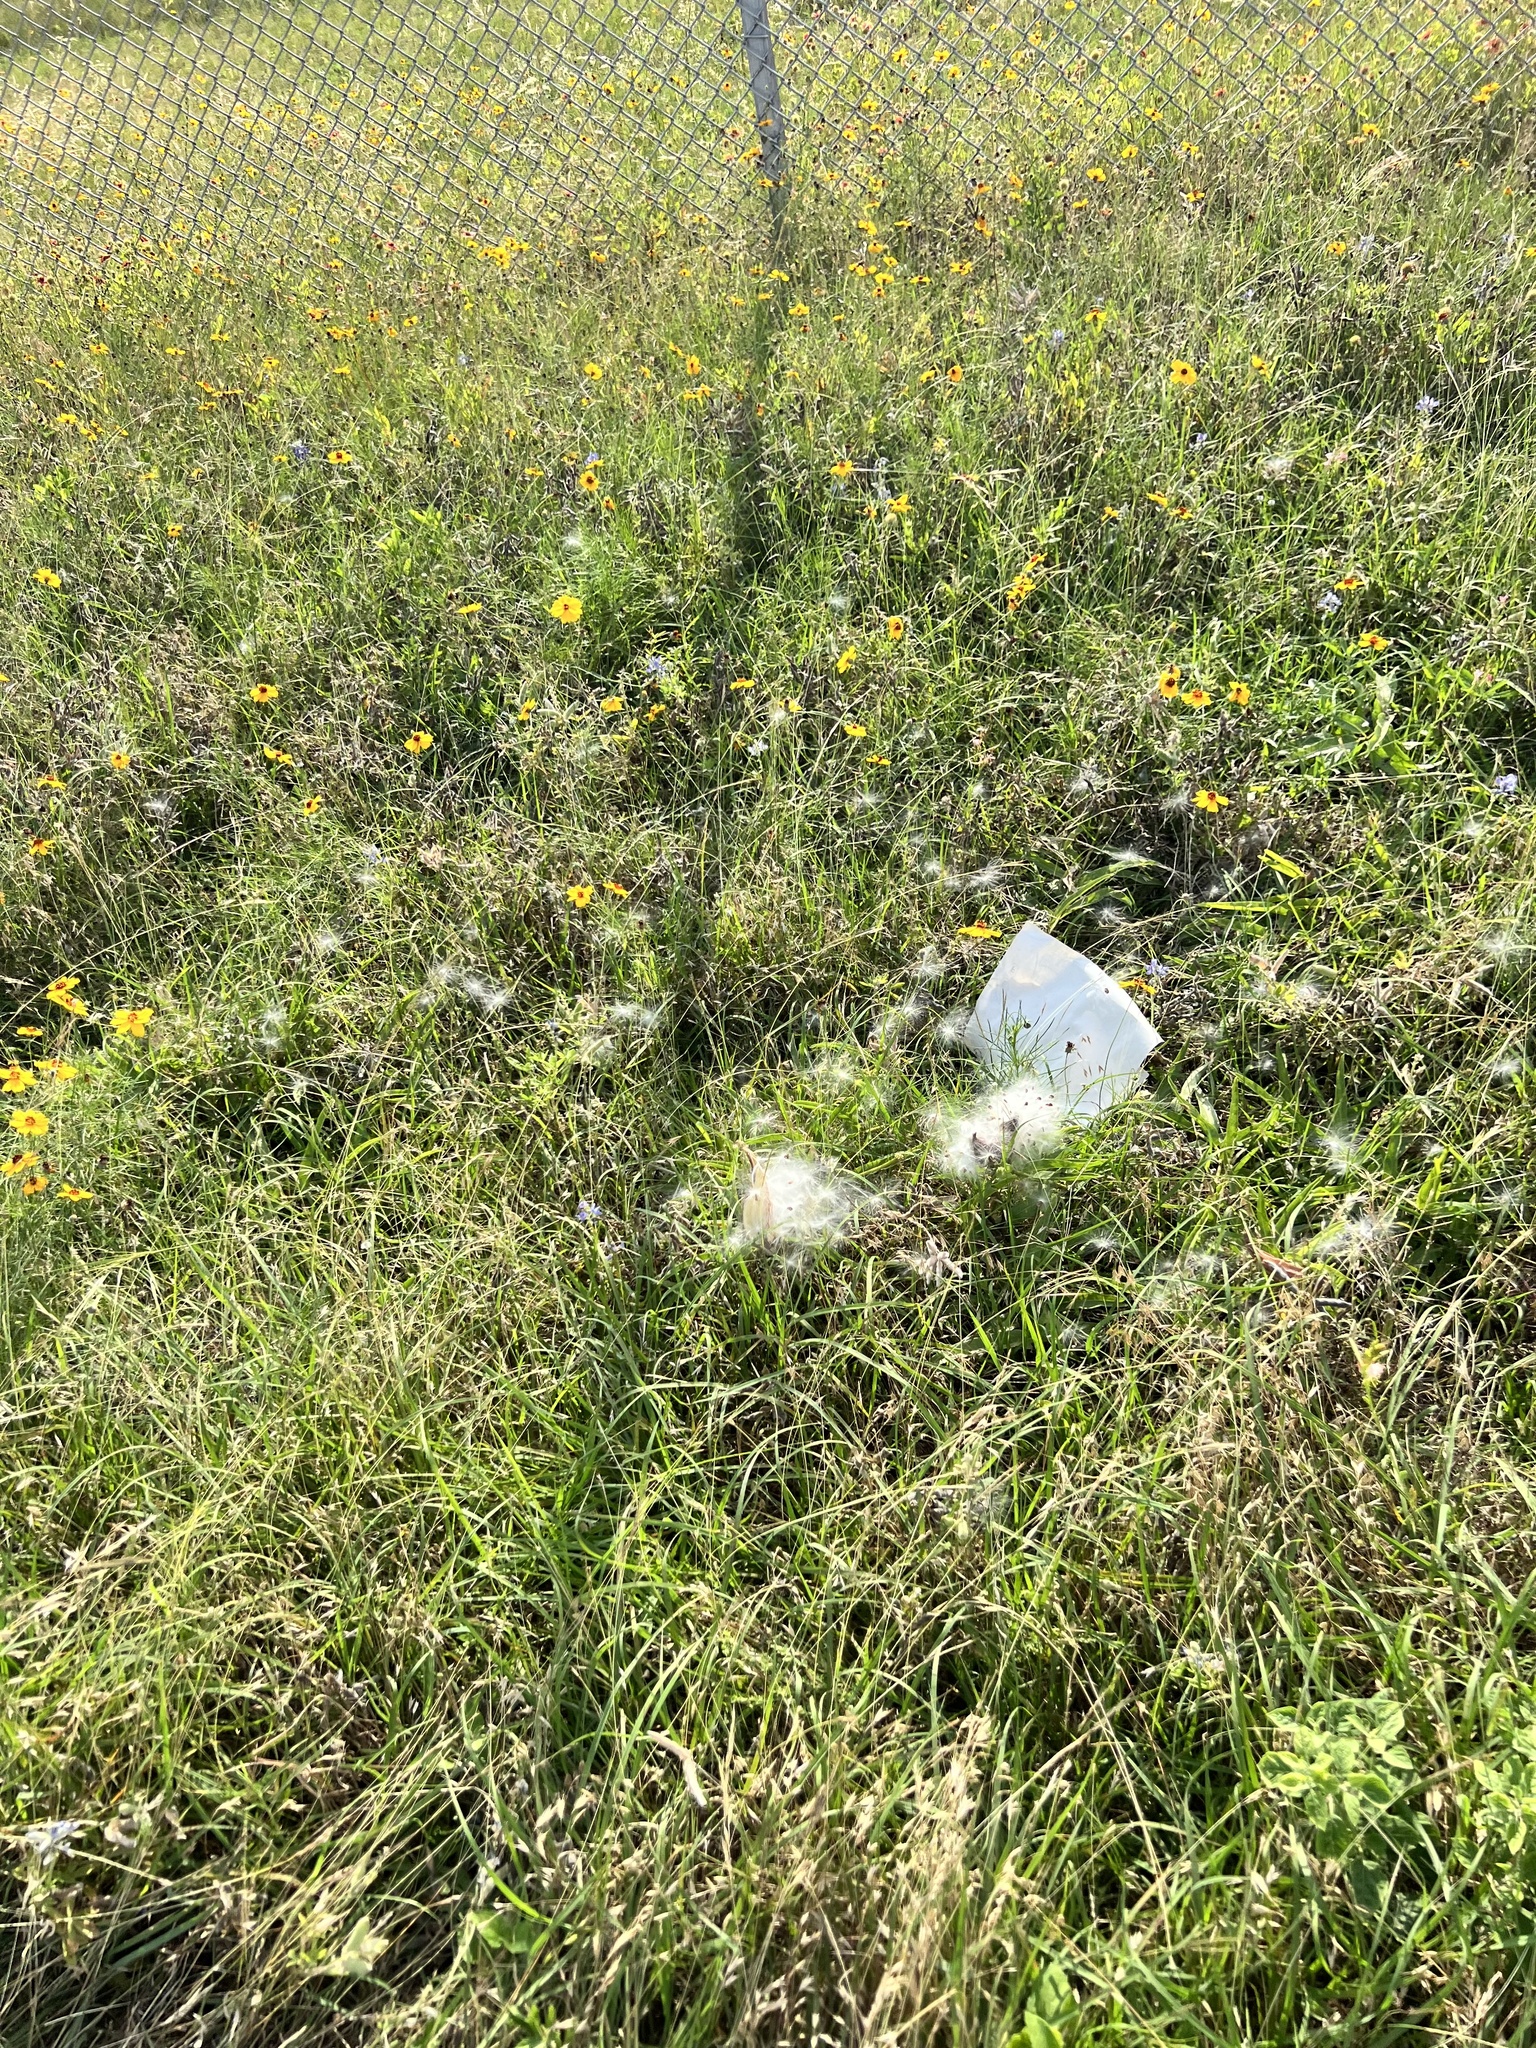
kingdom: Plantae
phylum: Tracheophyta
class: Magnoliopsida
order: Gentianales
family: Apocynaceae
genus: Asclepias
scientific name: Asclepias asperula
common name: Antelope horns
